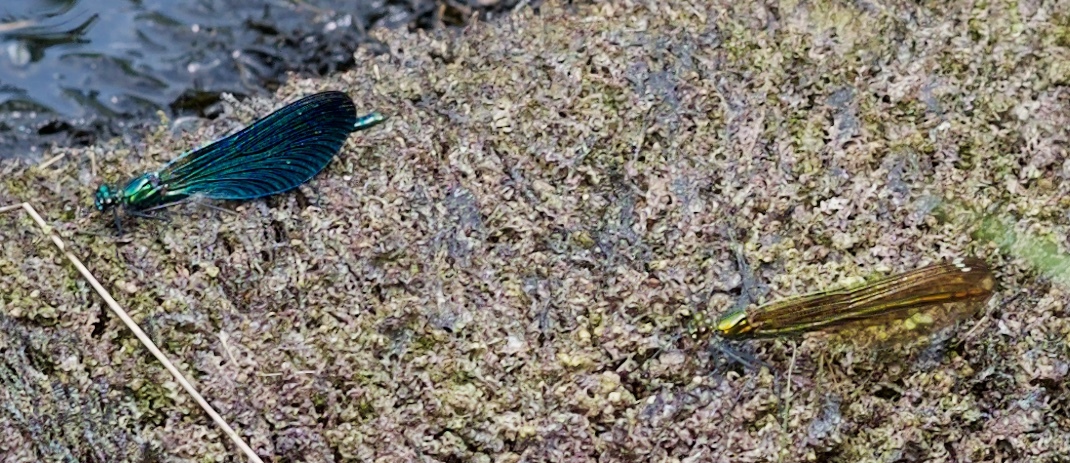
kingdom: Animalia
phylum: Arthropoda
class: Insecta
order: Odonata
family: Calopterygidae
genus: Calopteryx
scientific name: Calopteryx virgo
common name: Beautiful demoiselle
